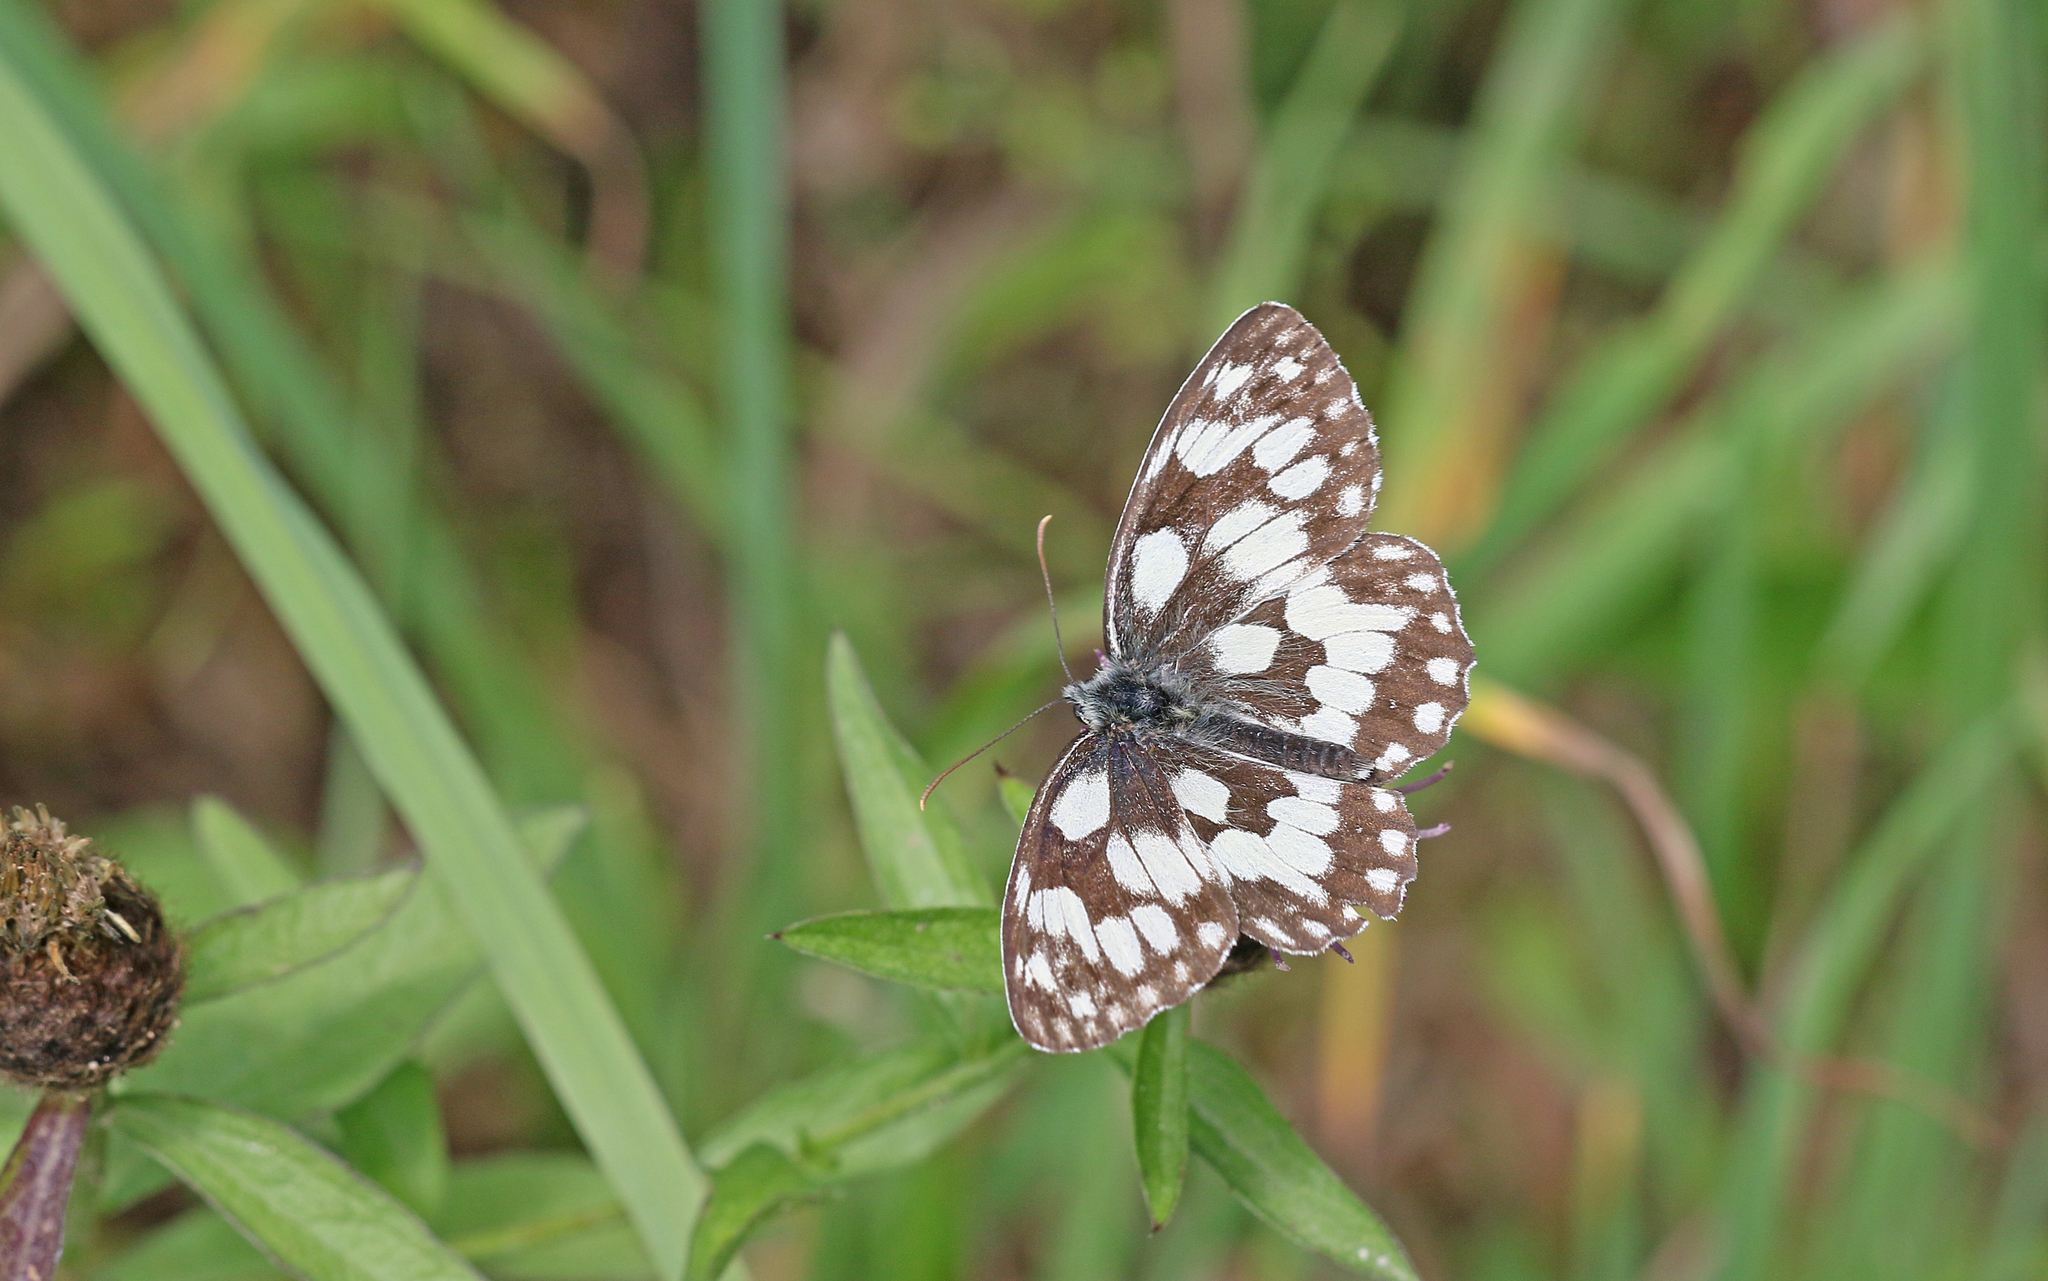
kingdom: Animalia
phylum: Arthropoda
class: Insecta
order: Lepidoptera
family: Nymphalidae
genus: Melanargia
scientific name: Melanargia galathea
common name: Marbled white
